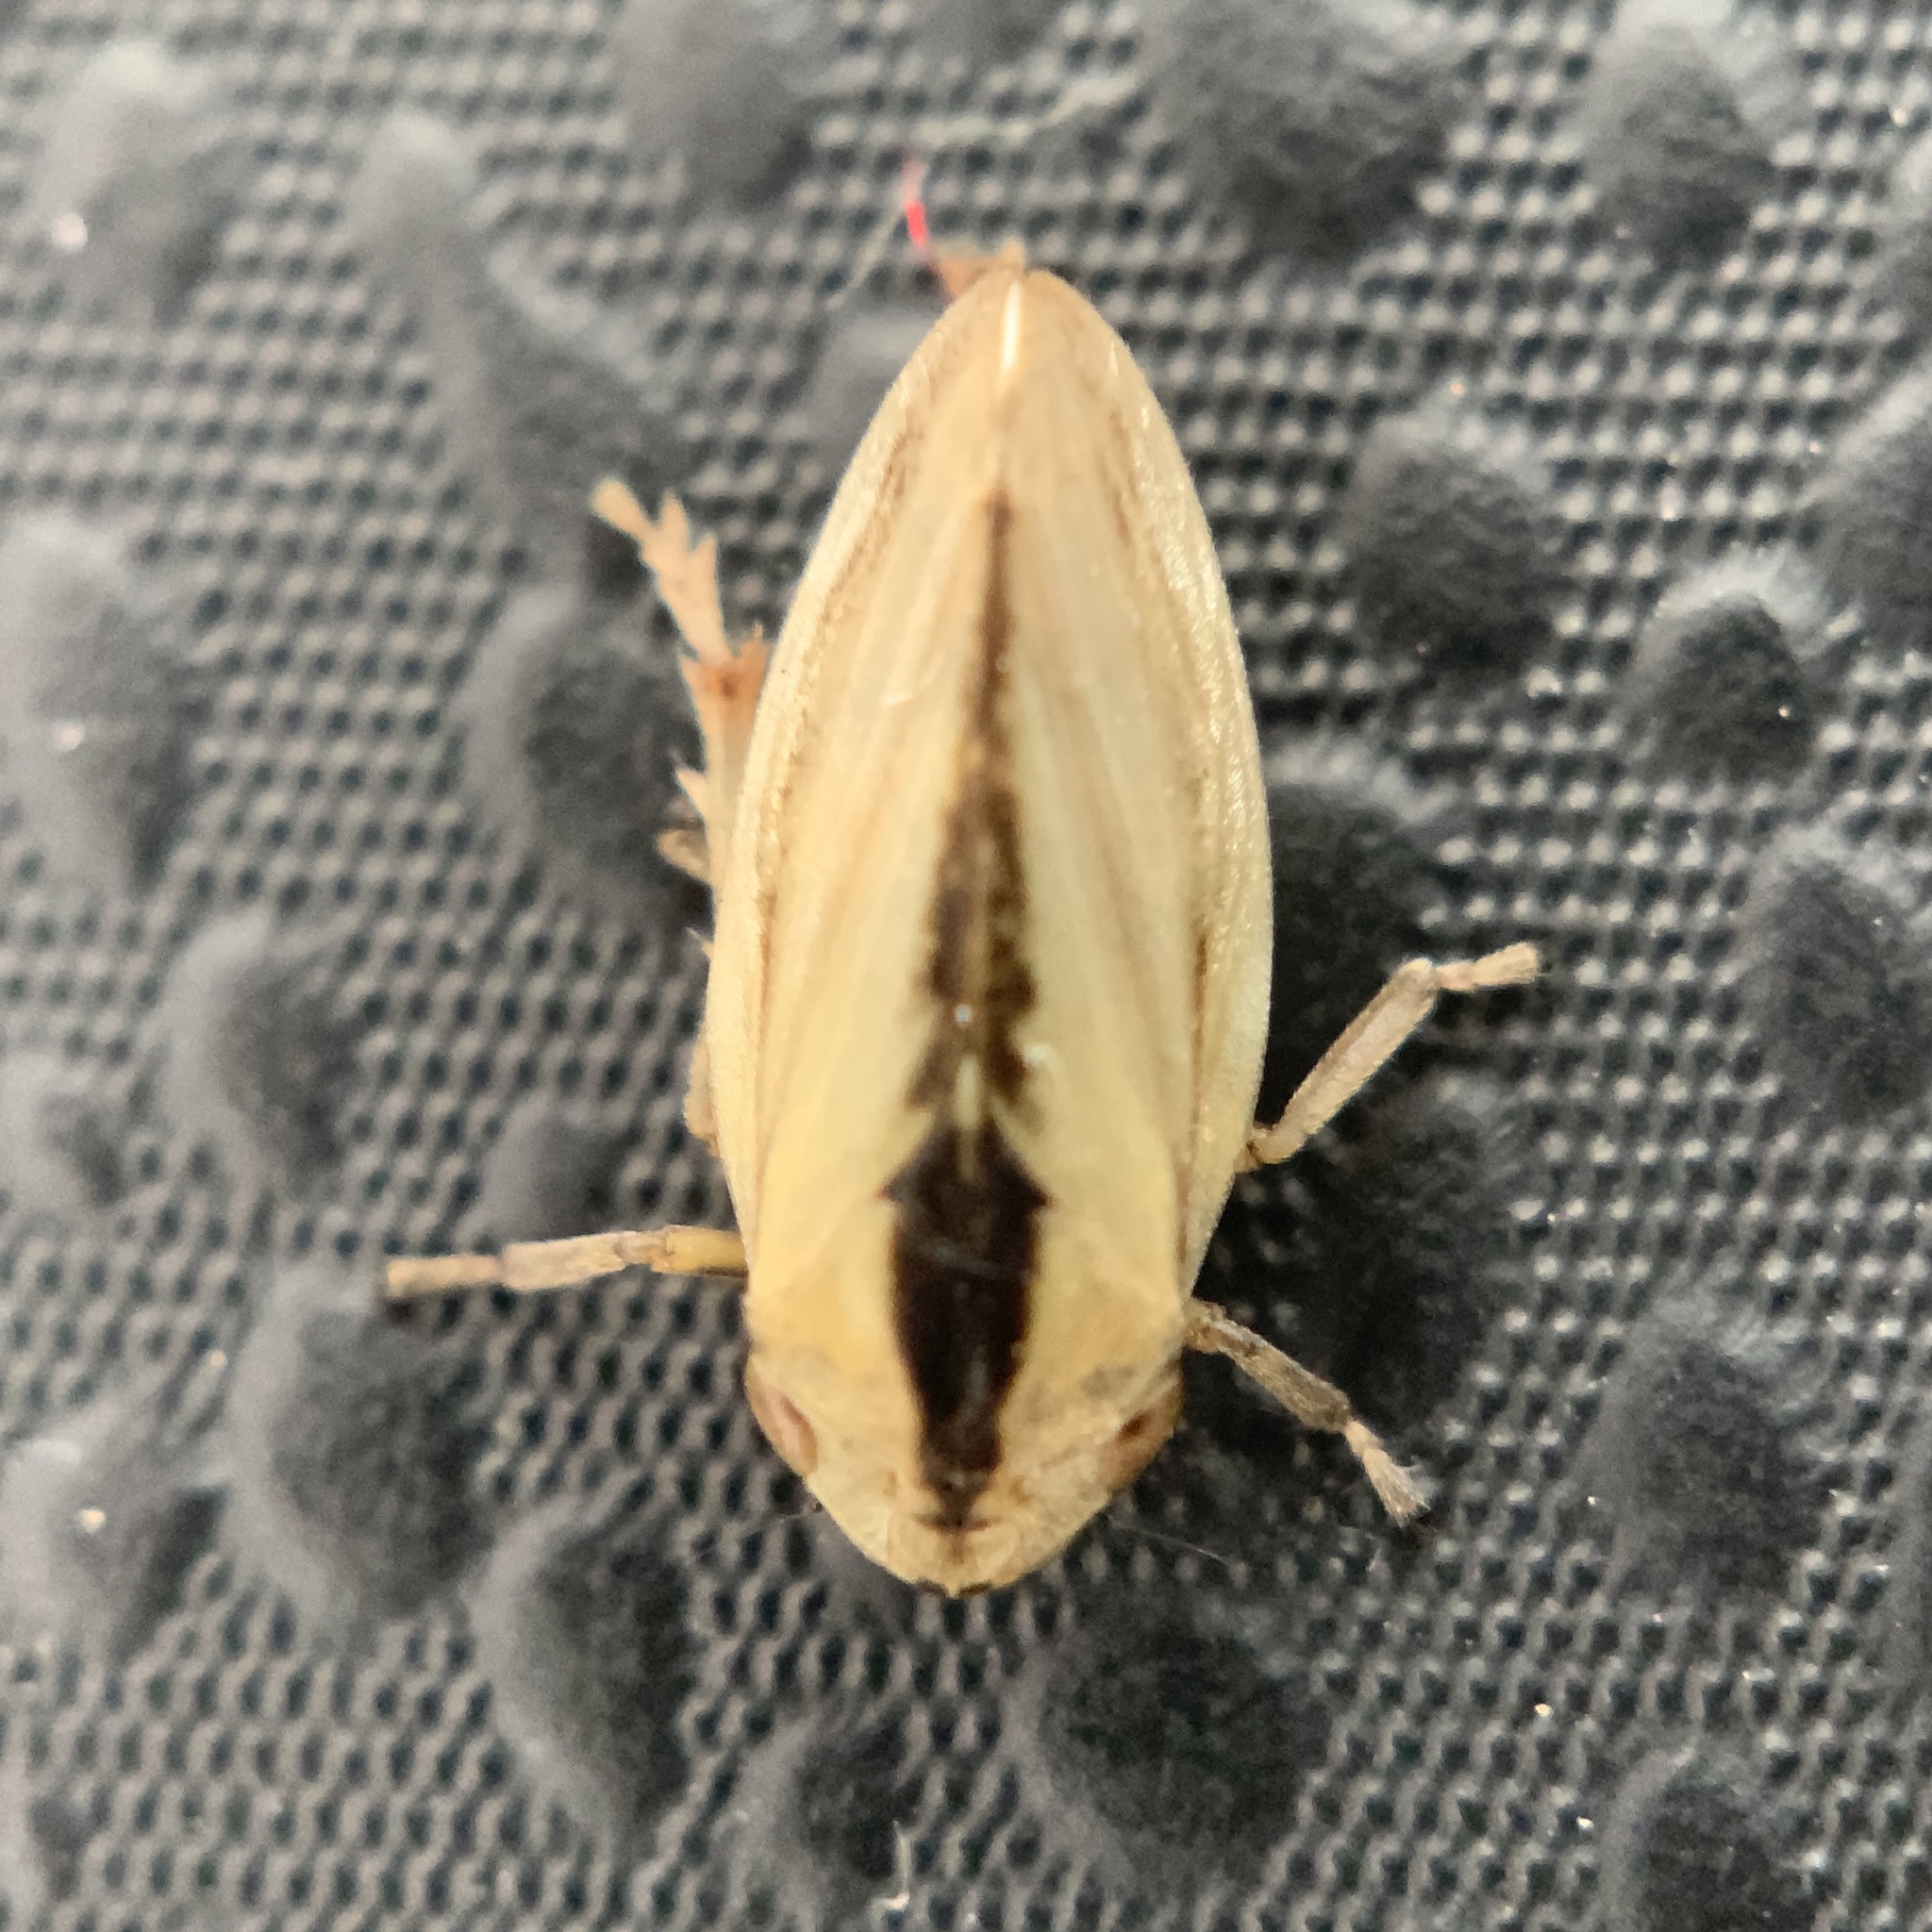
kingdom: Animalia
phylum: Arthropoda
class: Insecta
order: Hemiptera
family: Aphrophoridae
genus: Philaenus
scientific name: Philaenus spumarius
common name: Meadow spittlebug
